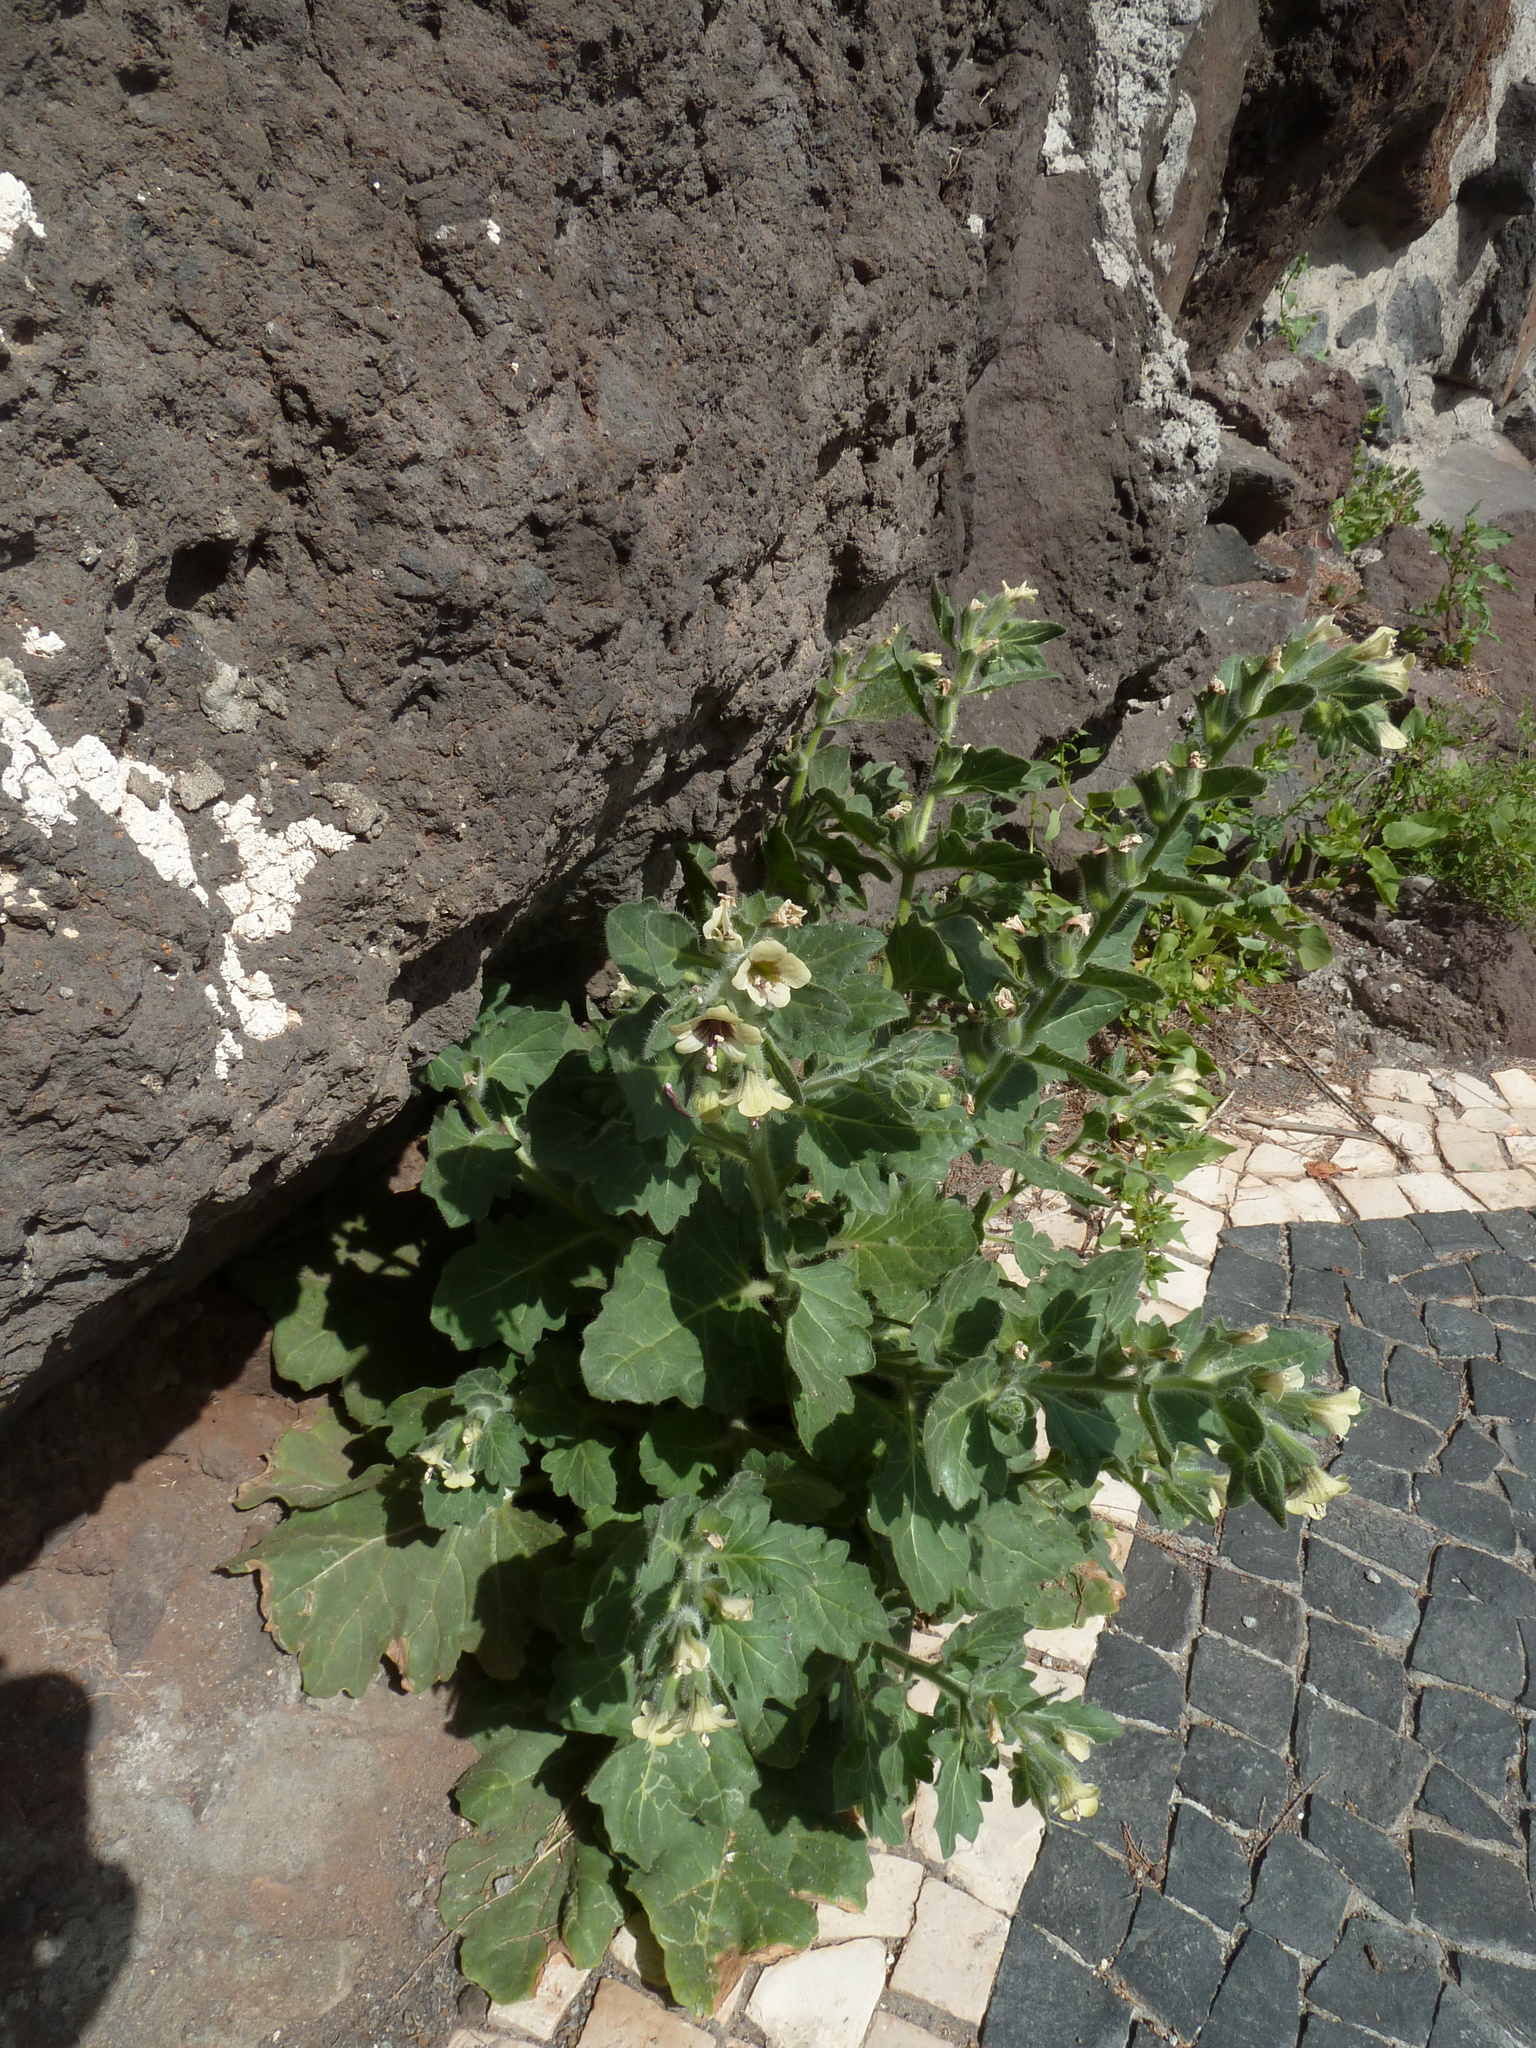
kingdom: Plantae
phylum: Tracheophyta
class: Magnoliopsida
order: Solanales
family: Solanaceae
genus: Hyoscyamus
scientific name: Hyoscyamus albus
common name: White henbane
